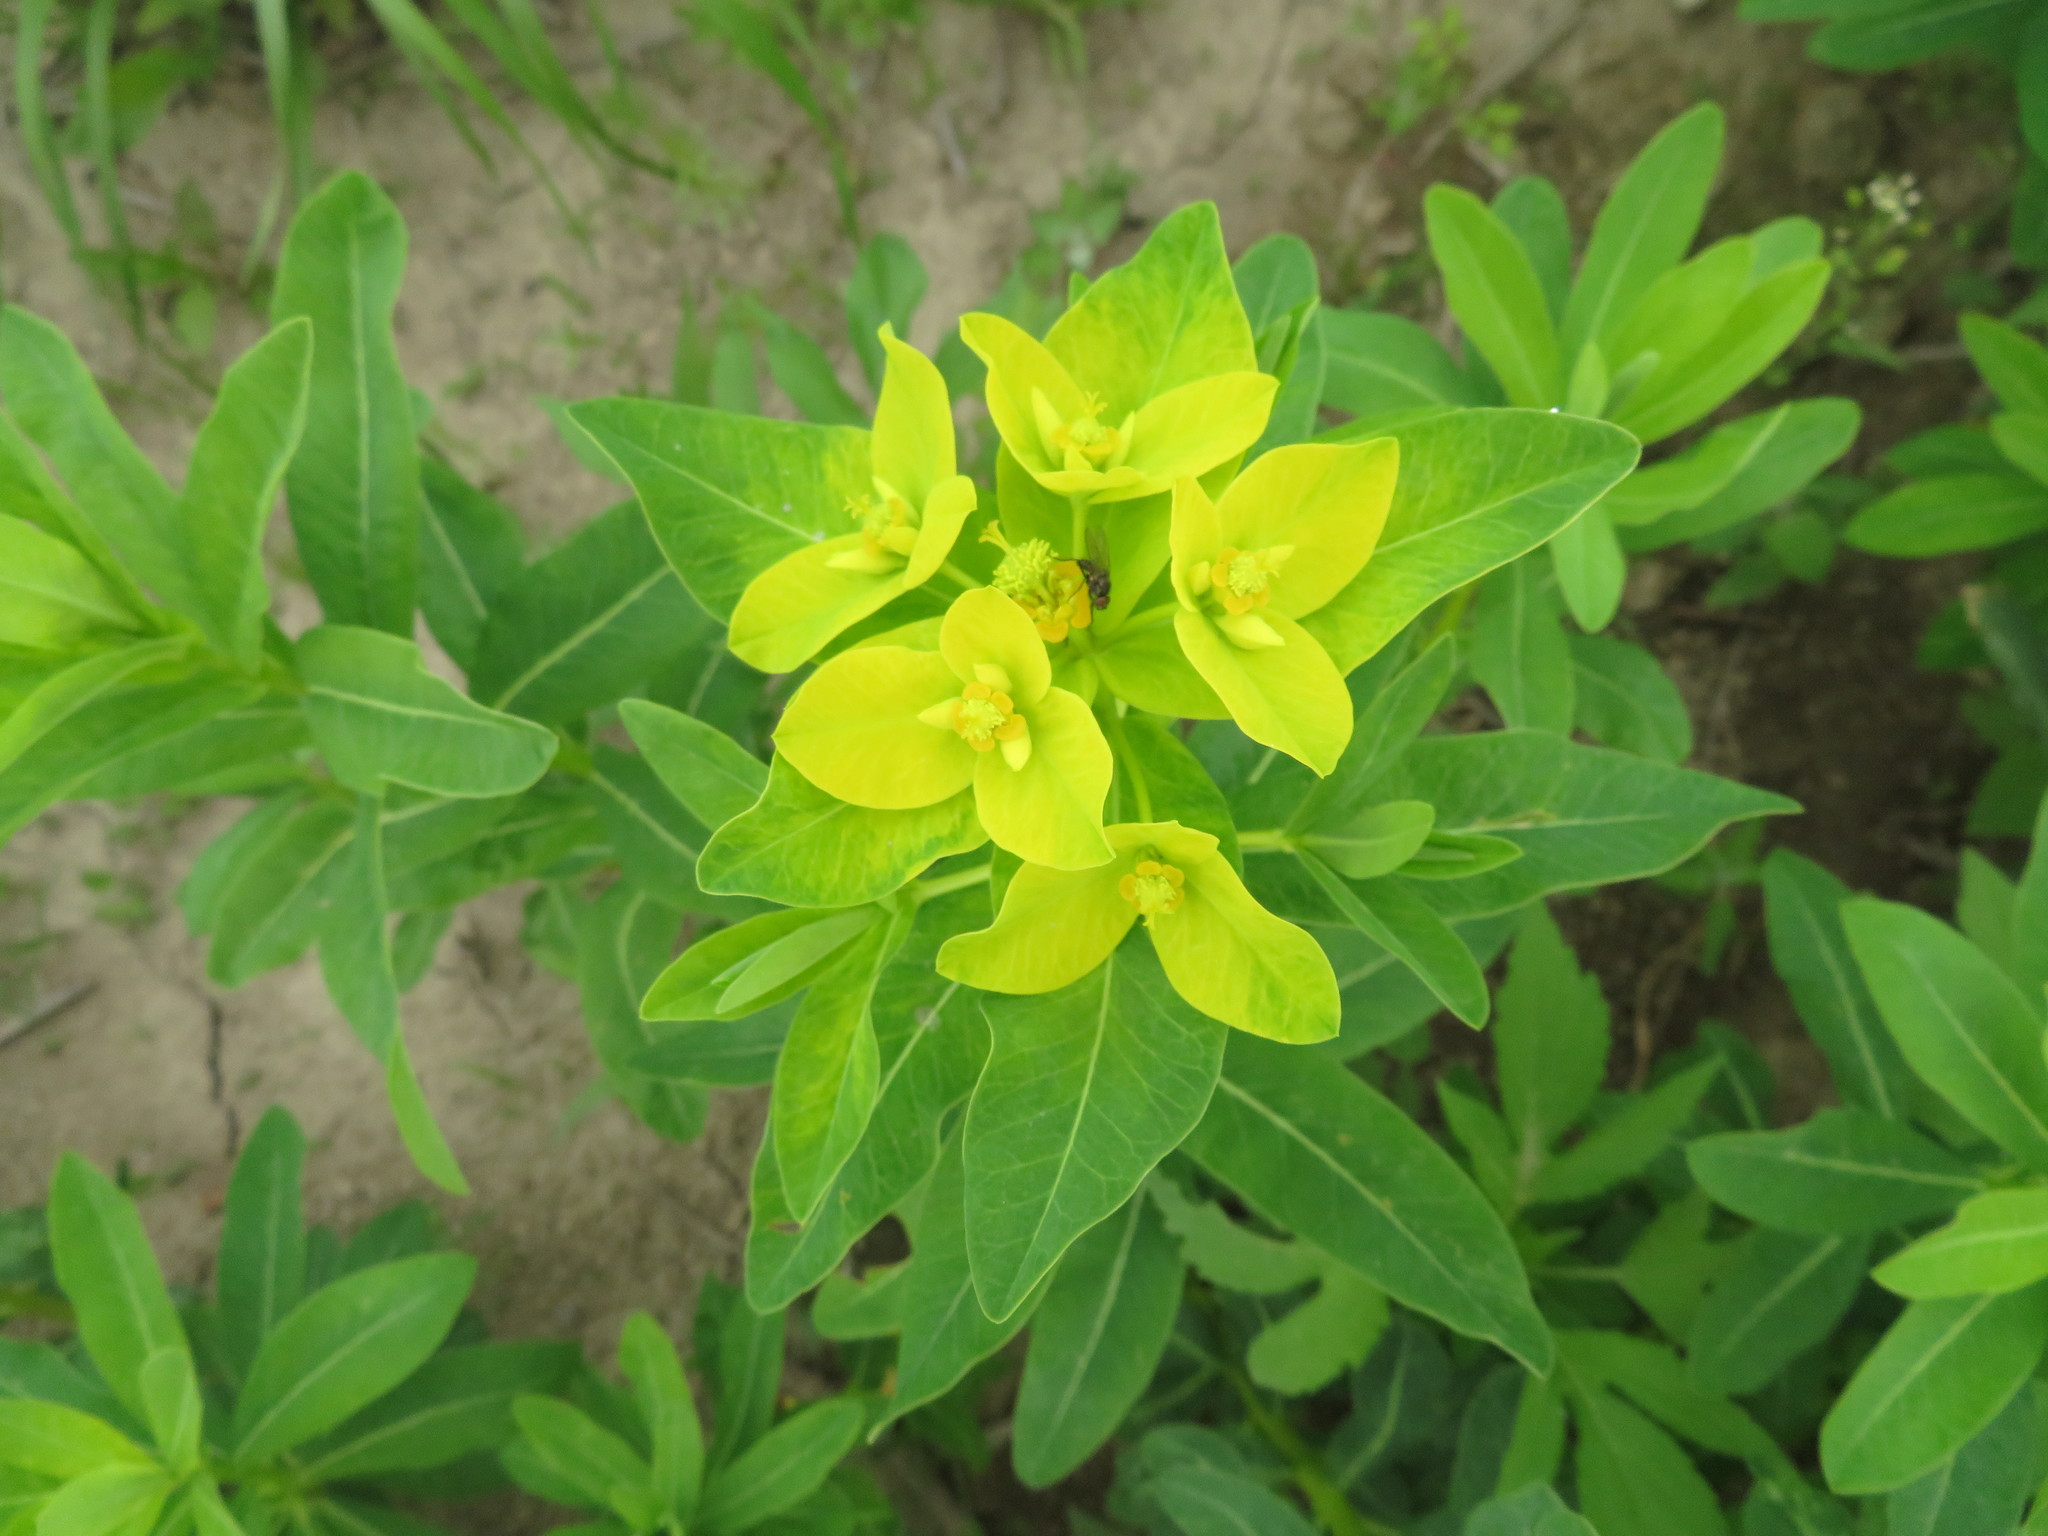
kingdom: Plantae
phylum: Tracheophyta
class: Magnoliopsida
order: Malpighiales
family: Euphorbiaceae
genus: Euphorbia
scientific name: Euphorbia adenochlora
